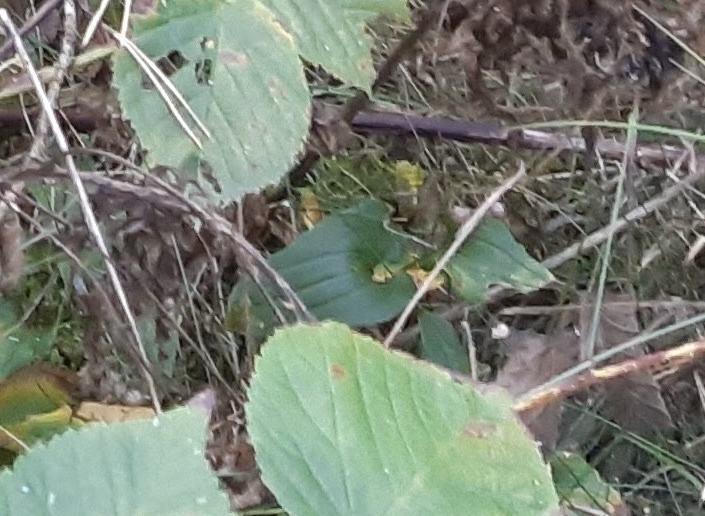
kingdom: Plantae
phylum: Tracheophyta
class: Liliopsida
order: Asparagales
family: Asparagaceae
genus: Maianthemum
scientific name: Maianthemum bifolium
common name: May lily
